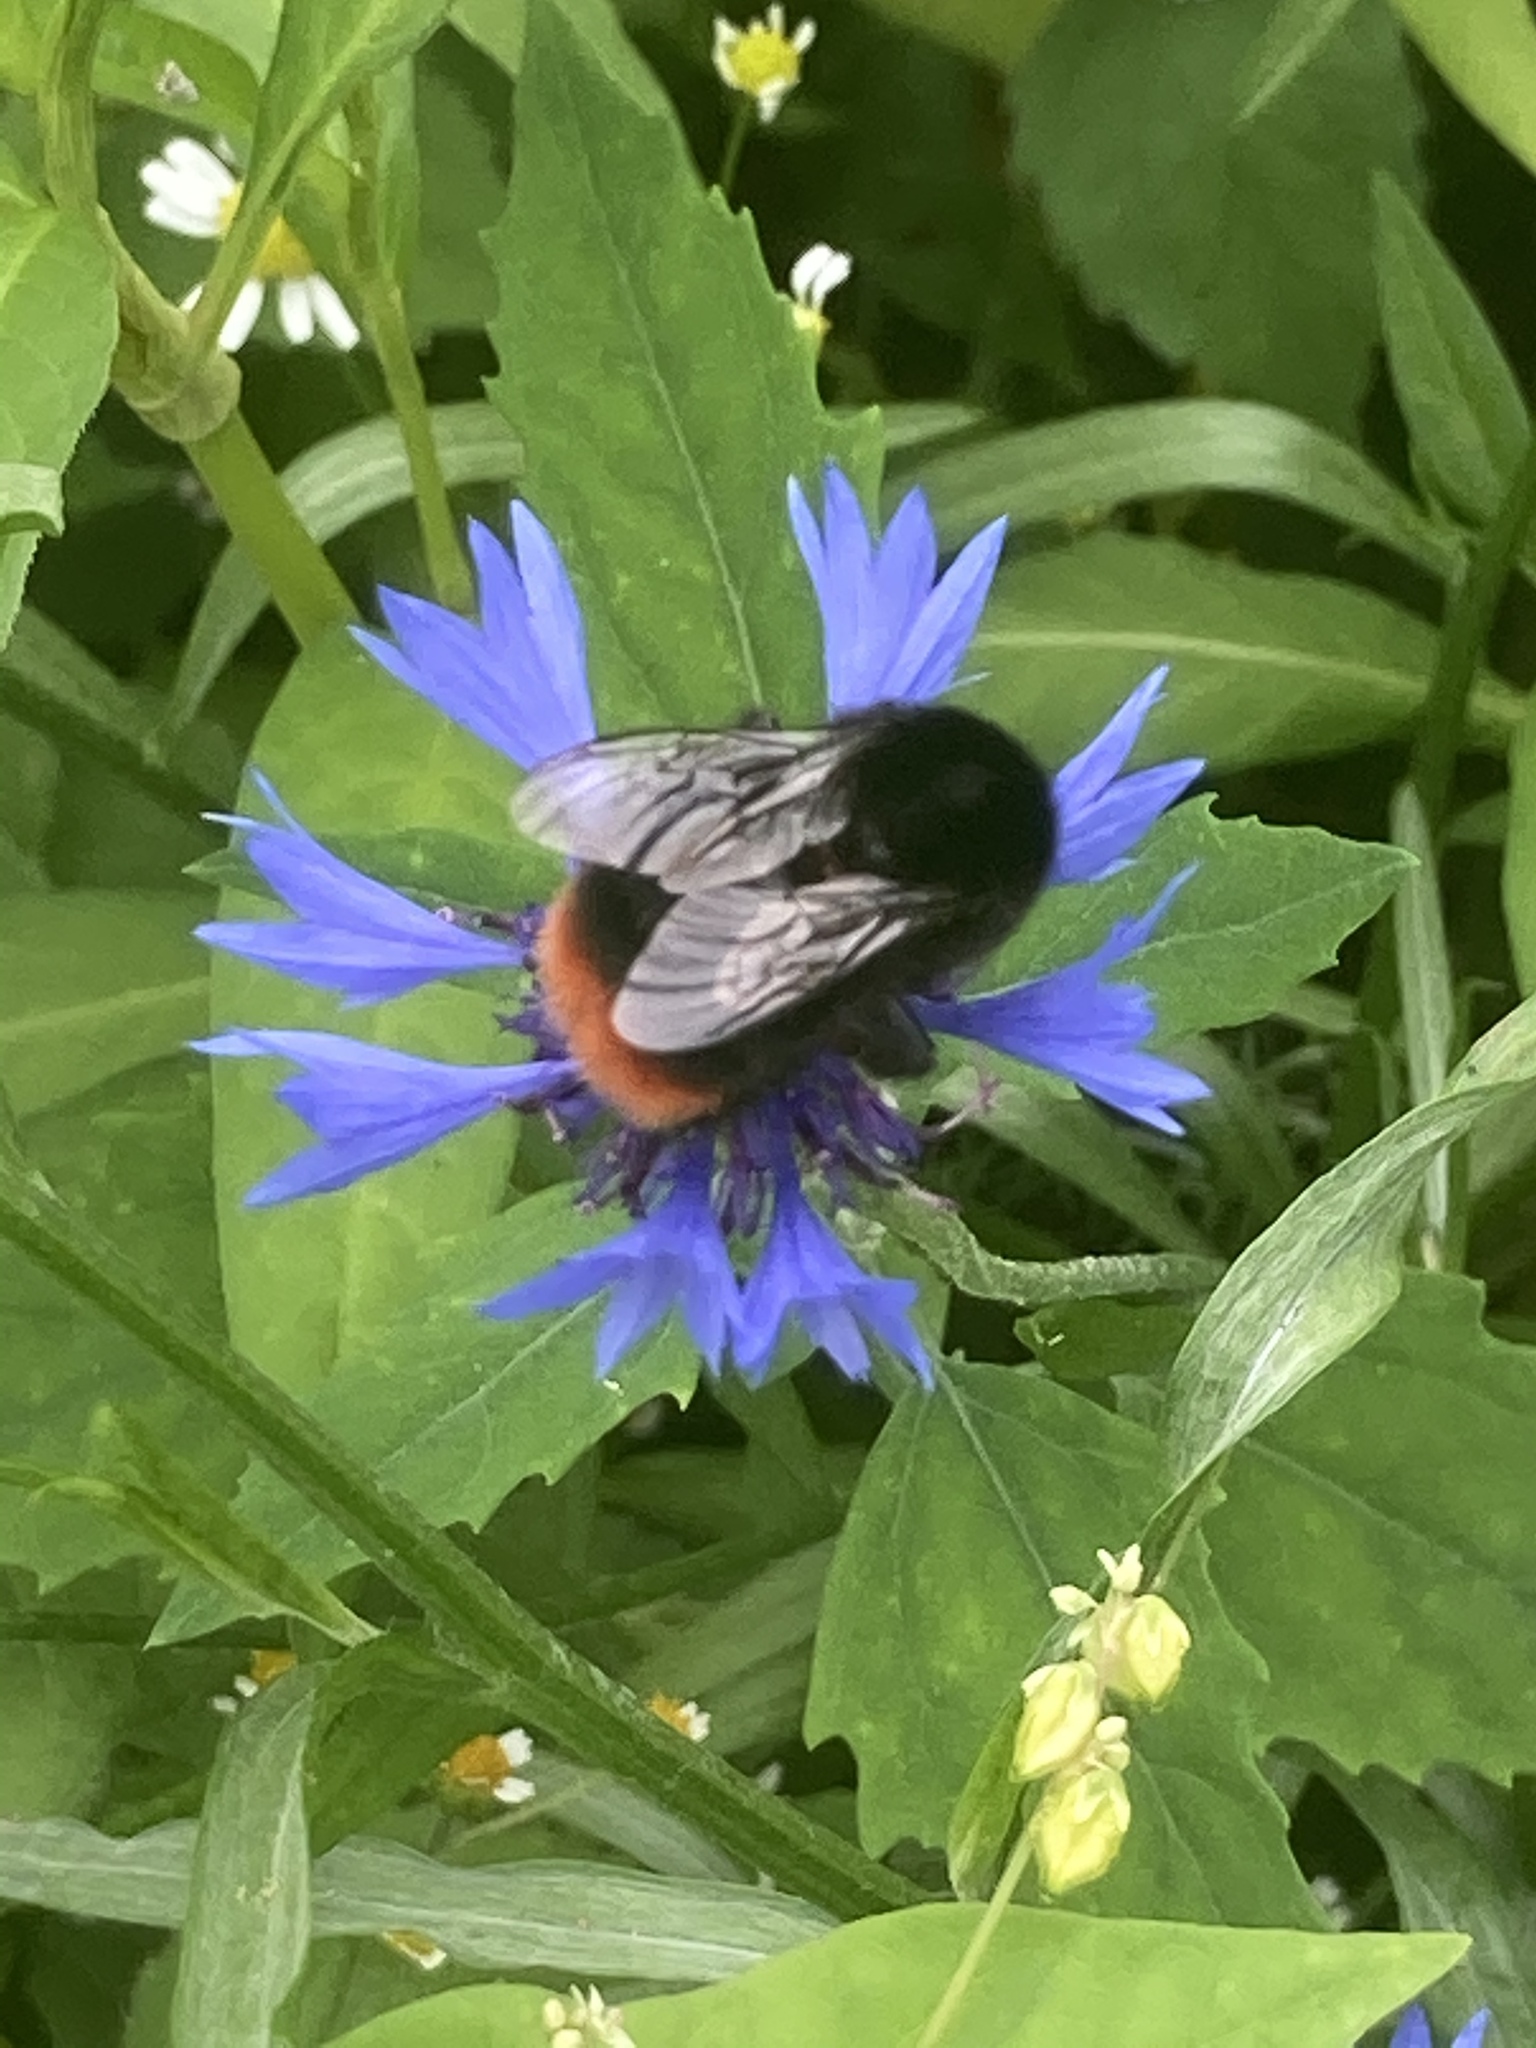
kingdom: Animalia
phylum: Arthropoda
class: Insecta
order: Hymenoptera
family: Apidae
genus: Bombus
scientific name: Bombus lapidarius
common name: Large red-tailed humble-bee
